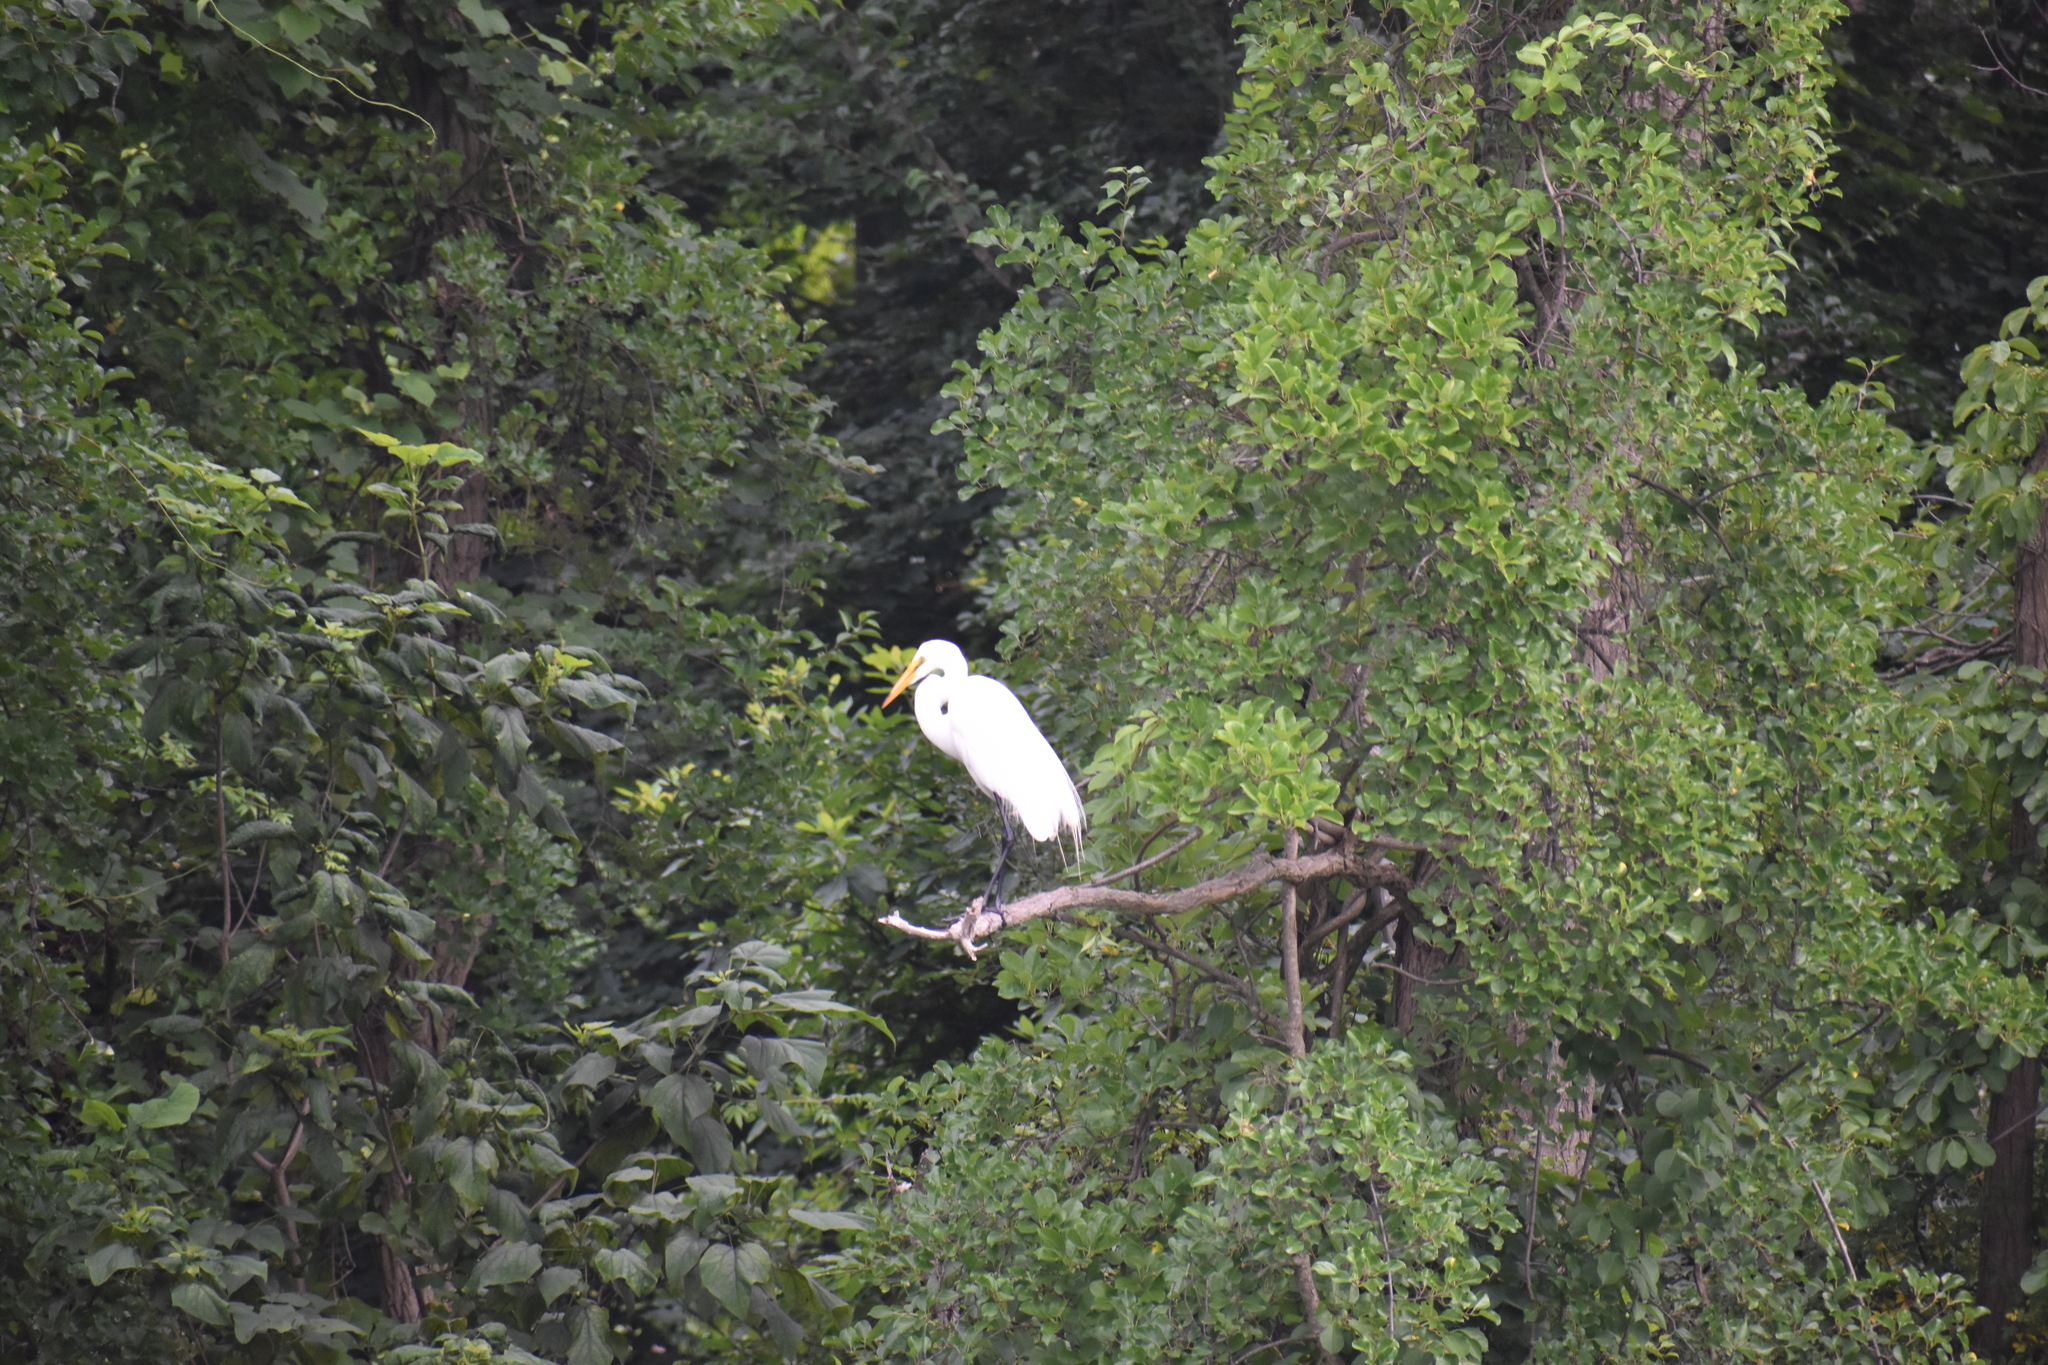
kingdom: Animalia
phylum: Chordata
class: Aves
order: Pelecaniformes
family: Ardeidae
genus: Ardea
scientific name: Ardea alba
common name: Great egret
